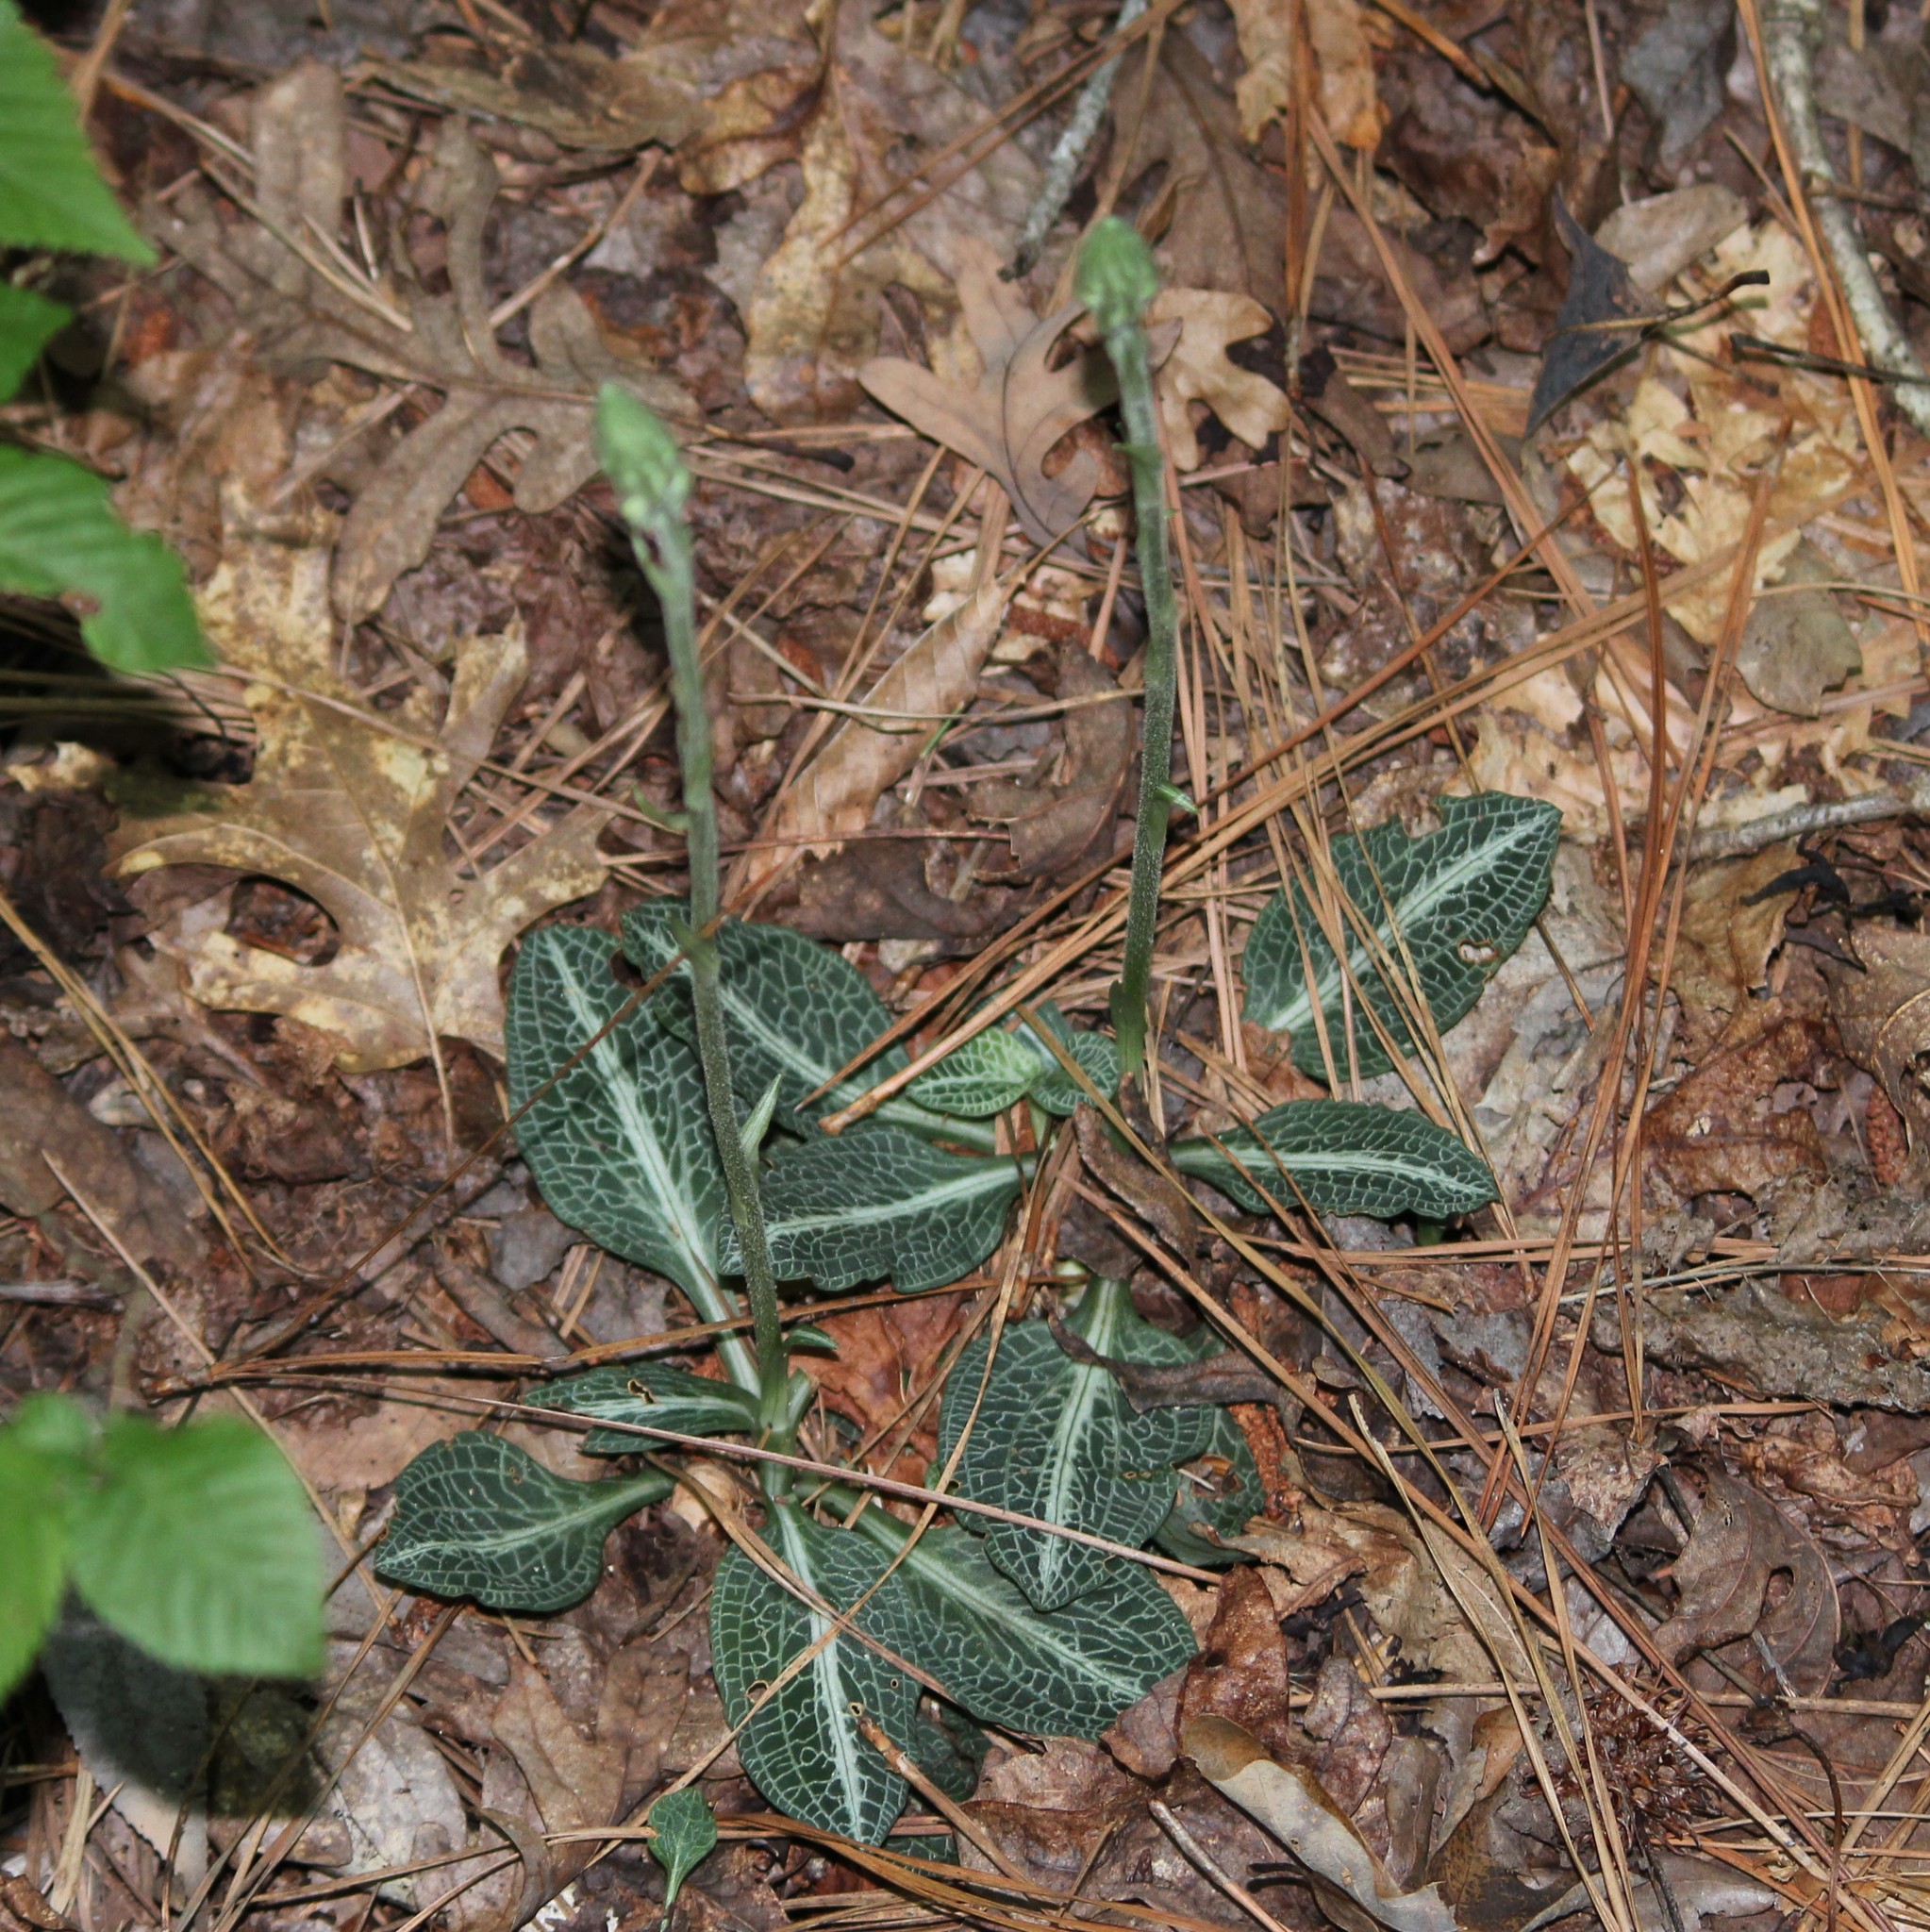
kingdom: Plantae
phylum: Tracheophyta
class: Liliopsida
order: Asparagales
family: Orchidaceae
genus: Goodyera
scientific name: Goodyera pubescens
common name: Downy rattlesnake-plantain
